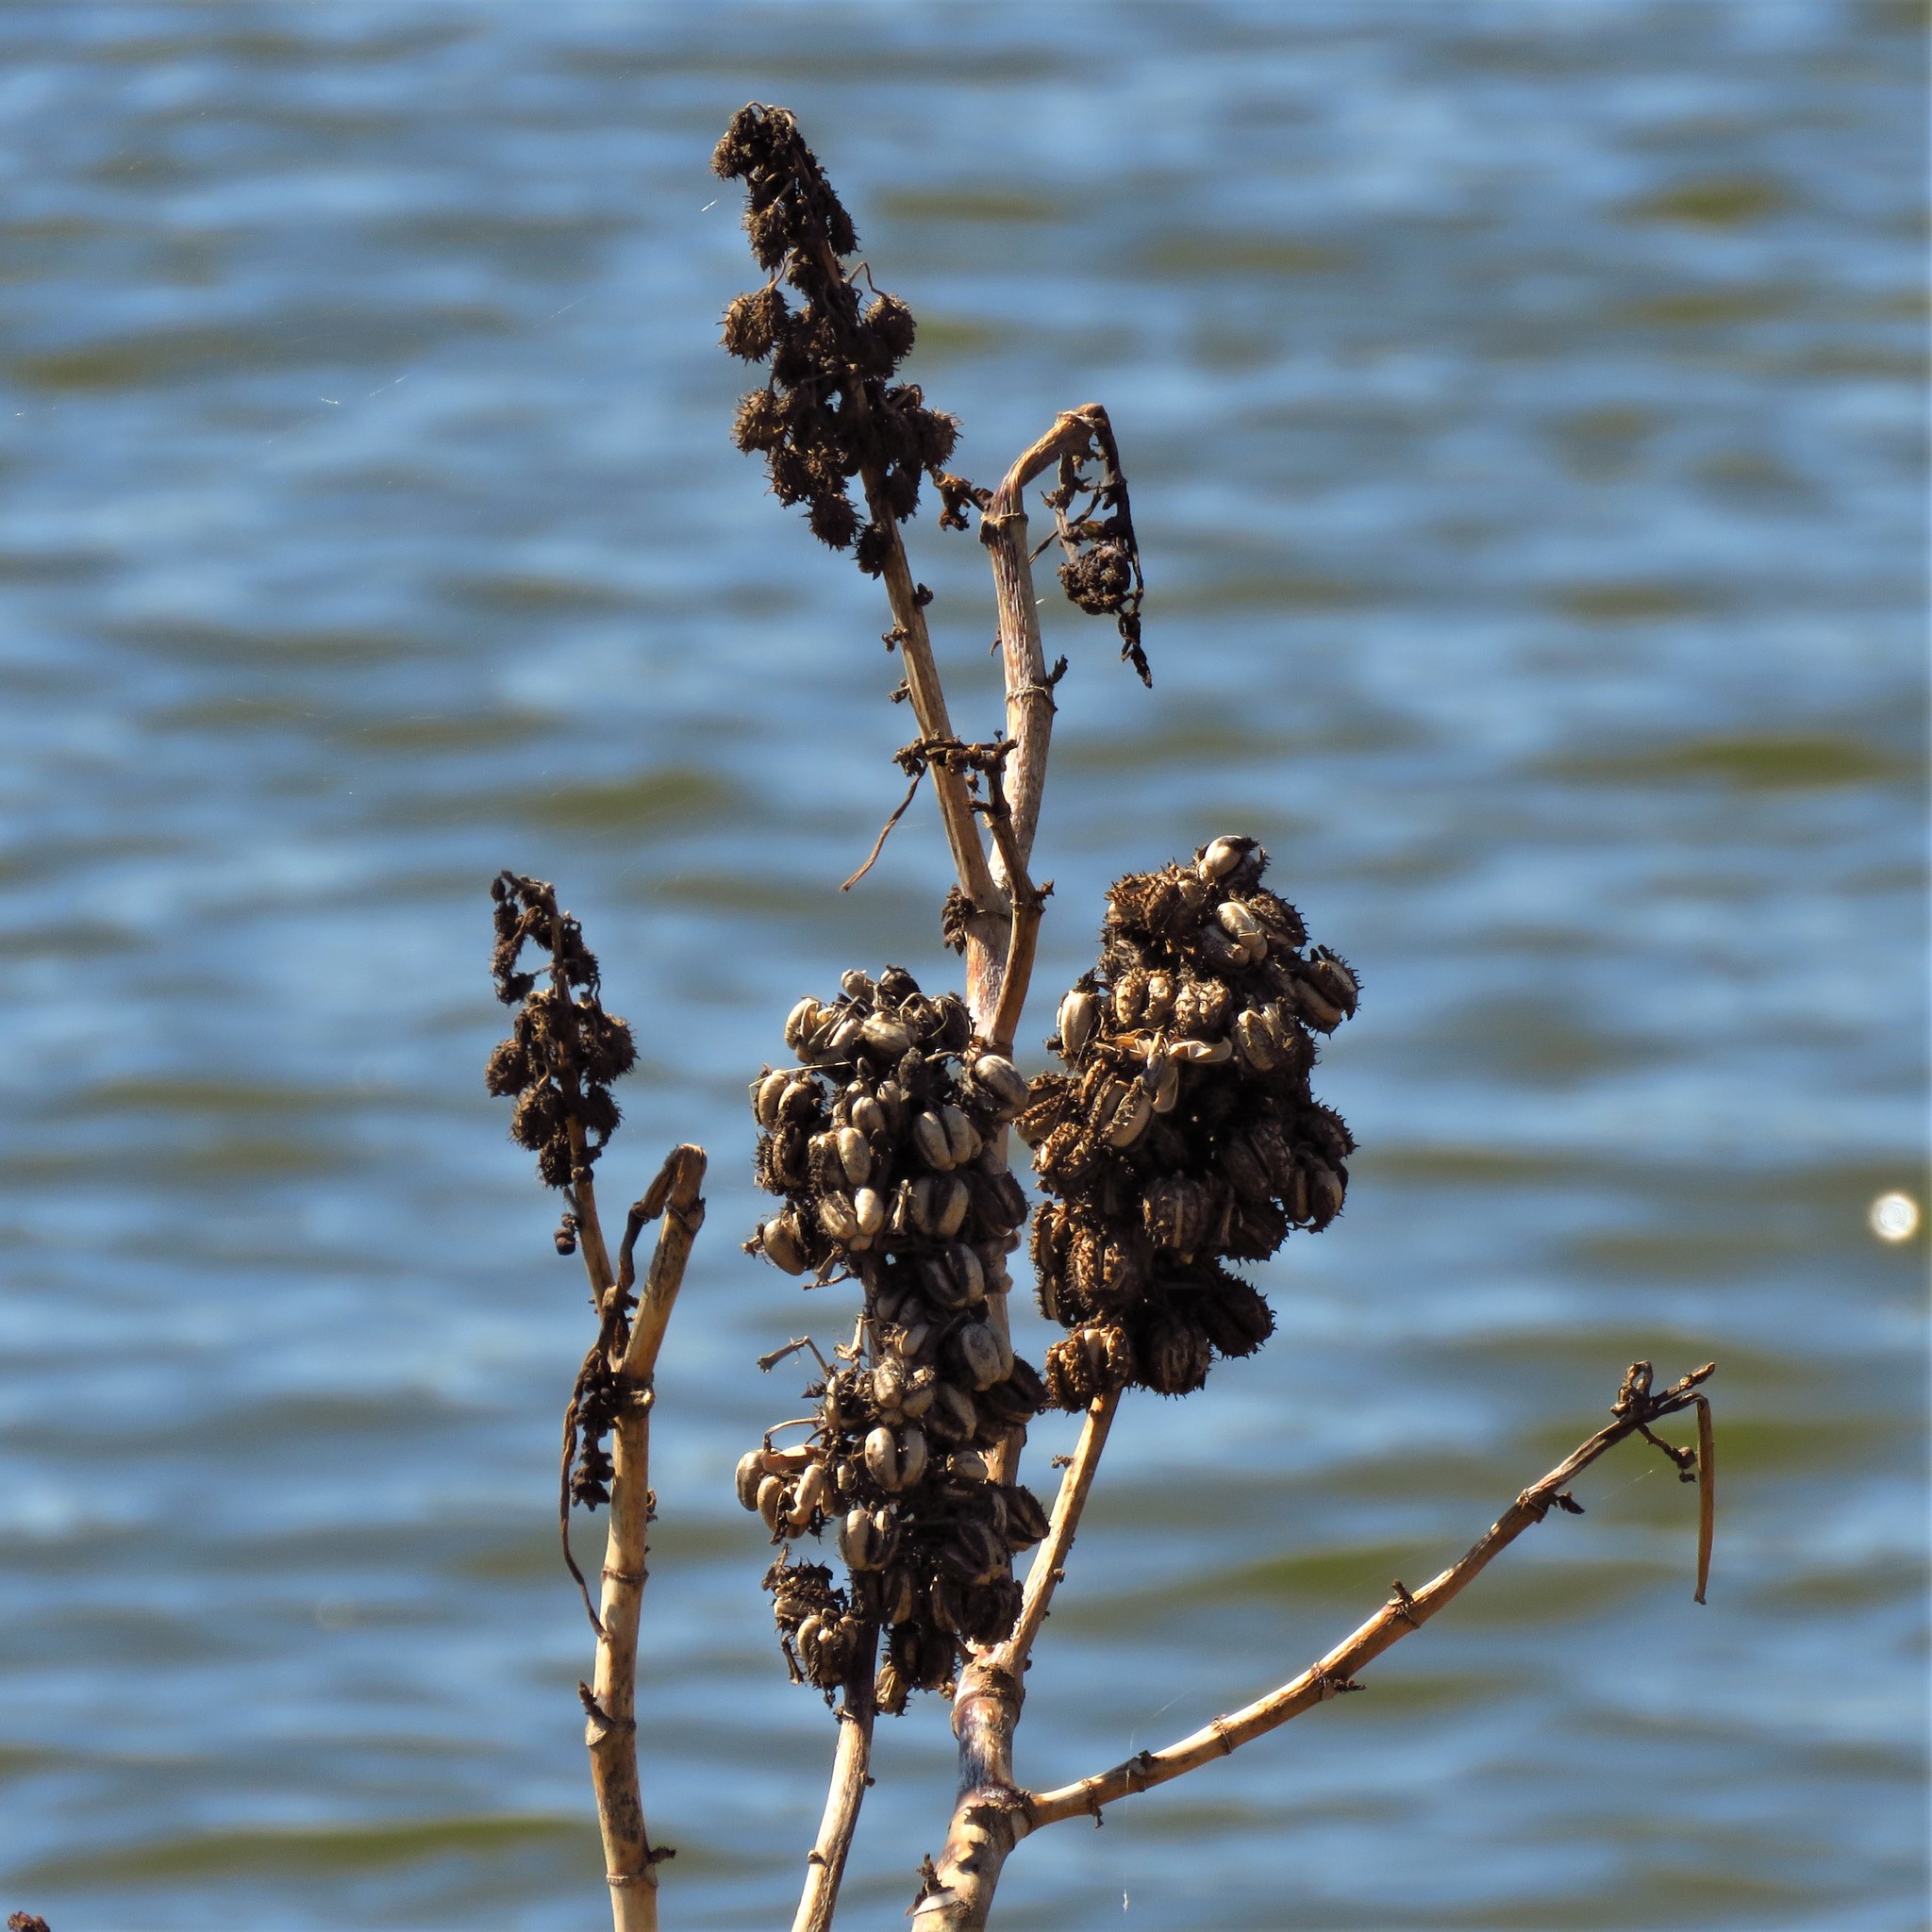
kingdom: Plantae
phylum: Tracheophyta
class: Magnoliopsida
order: Malpighiales
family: Euphorbiaceae
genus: Ricinus
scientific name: Ricinus communis
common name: Castor-oil-plant
